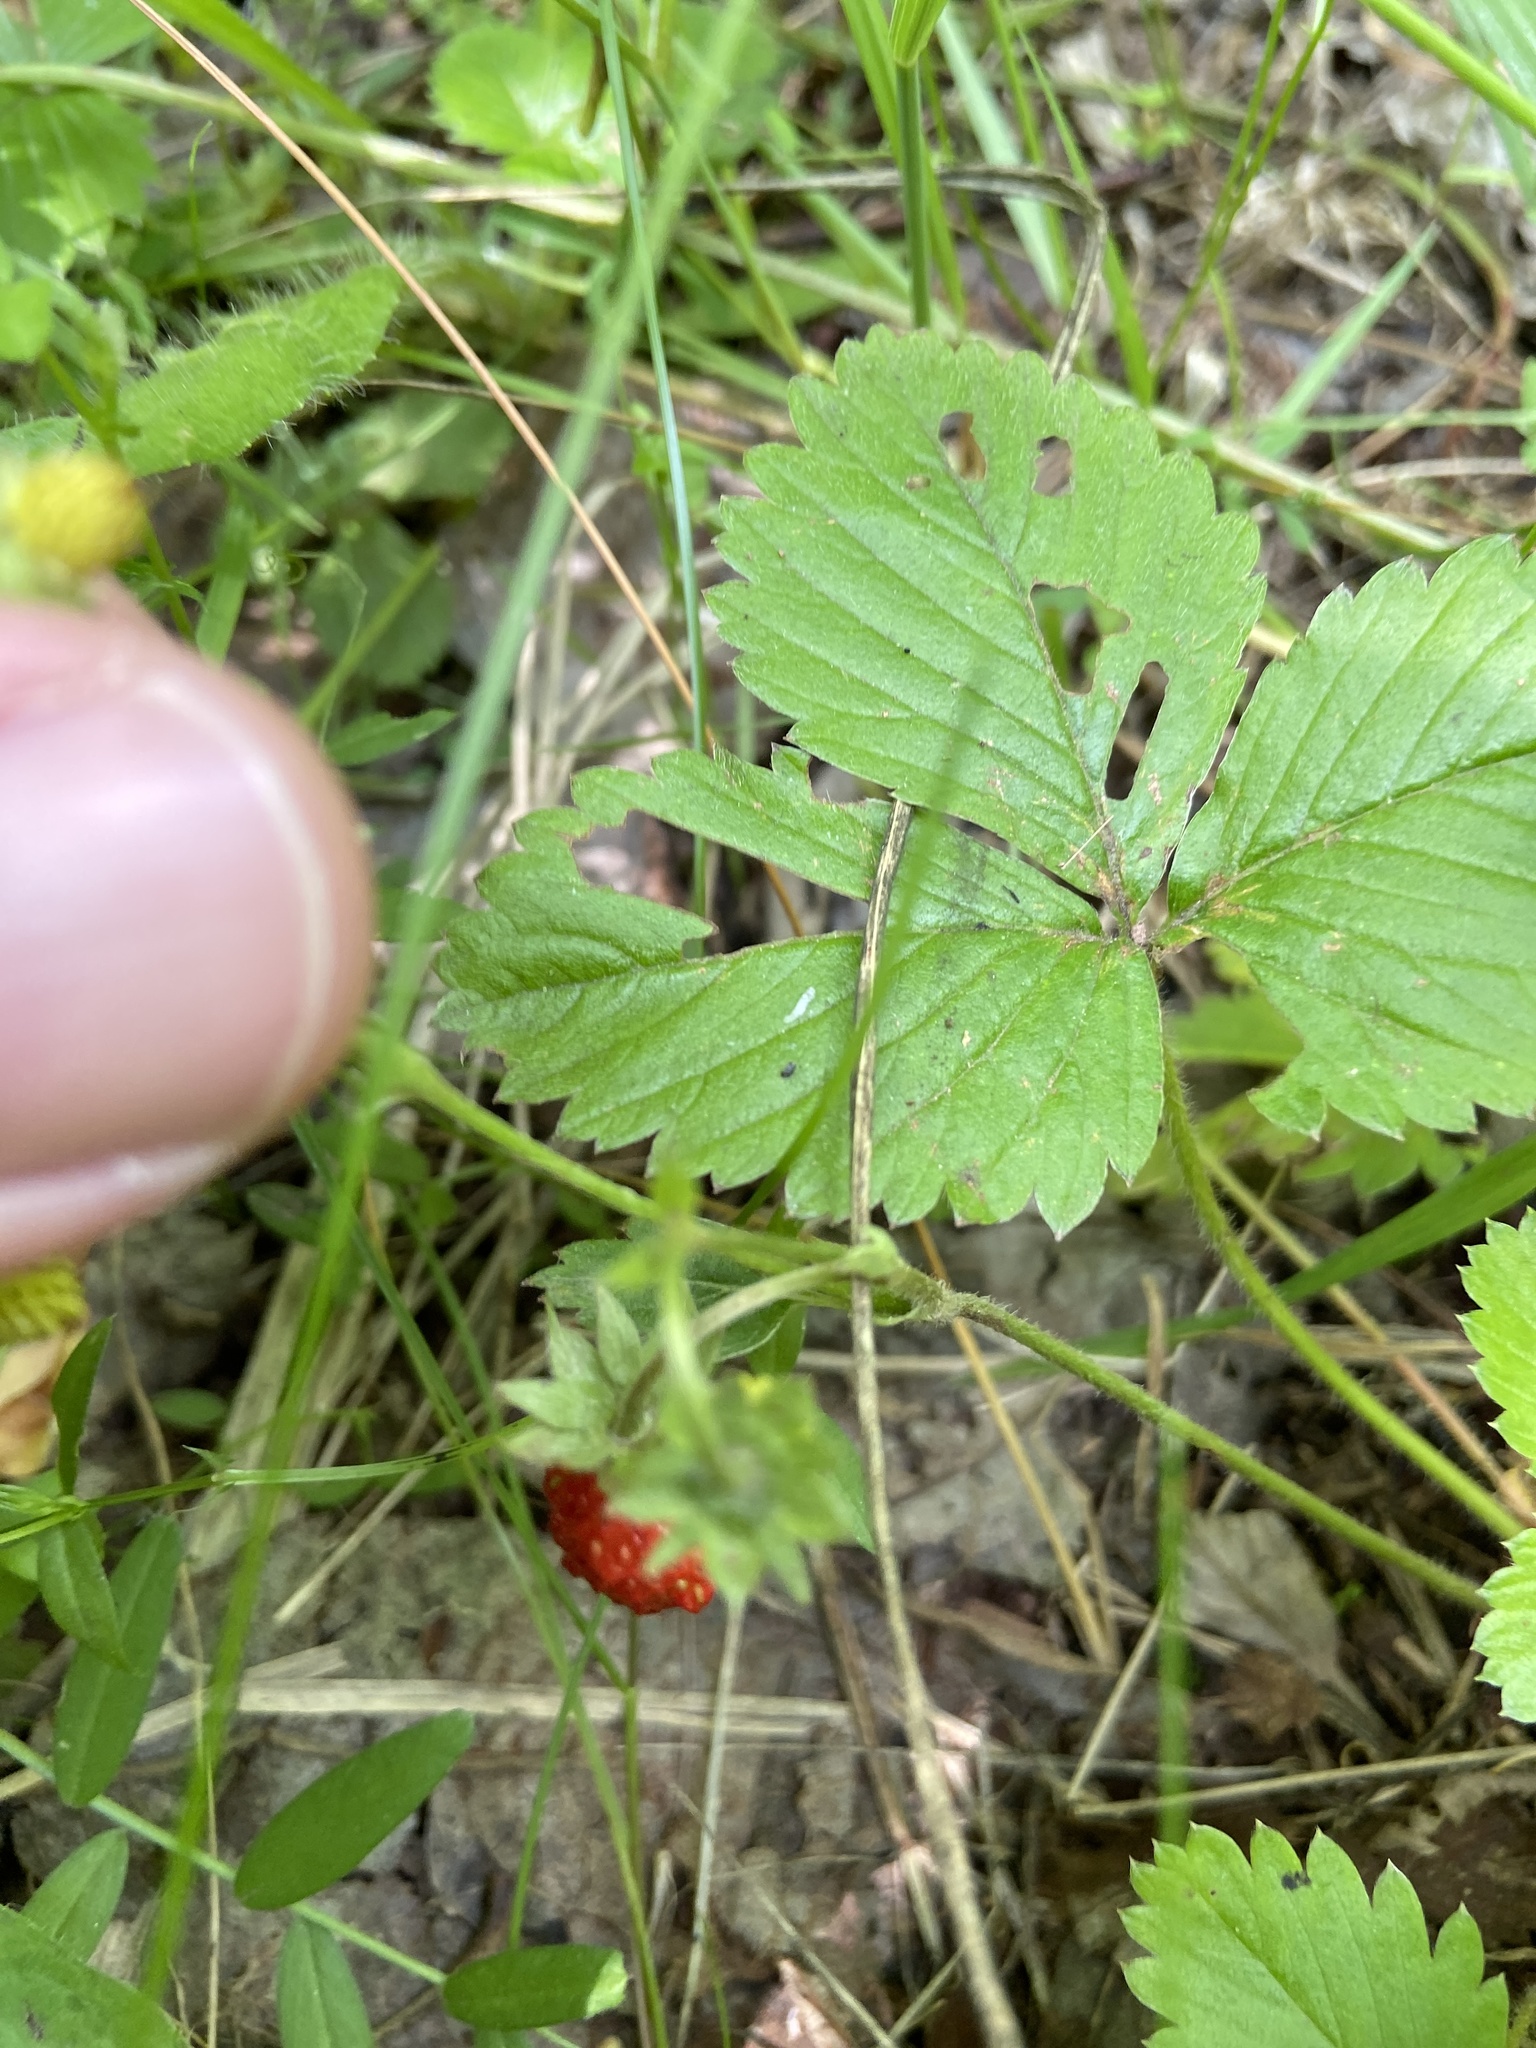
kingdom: Plantae
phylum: Tracheophyta
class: Magnoliopsida
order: Rosales
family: Rosaceae
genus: Fragaria
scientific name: Fragaria vesca
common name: Wild strawberry
